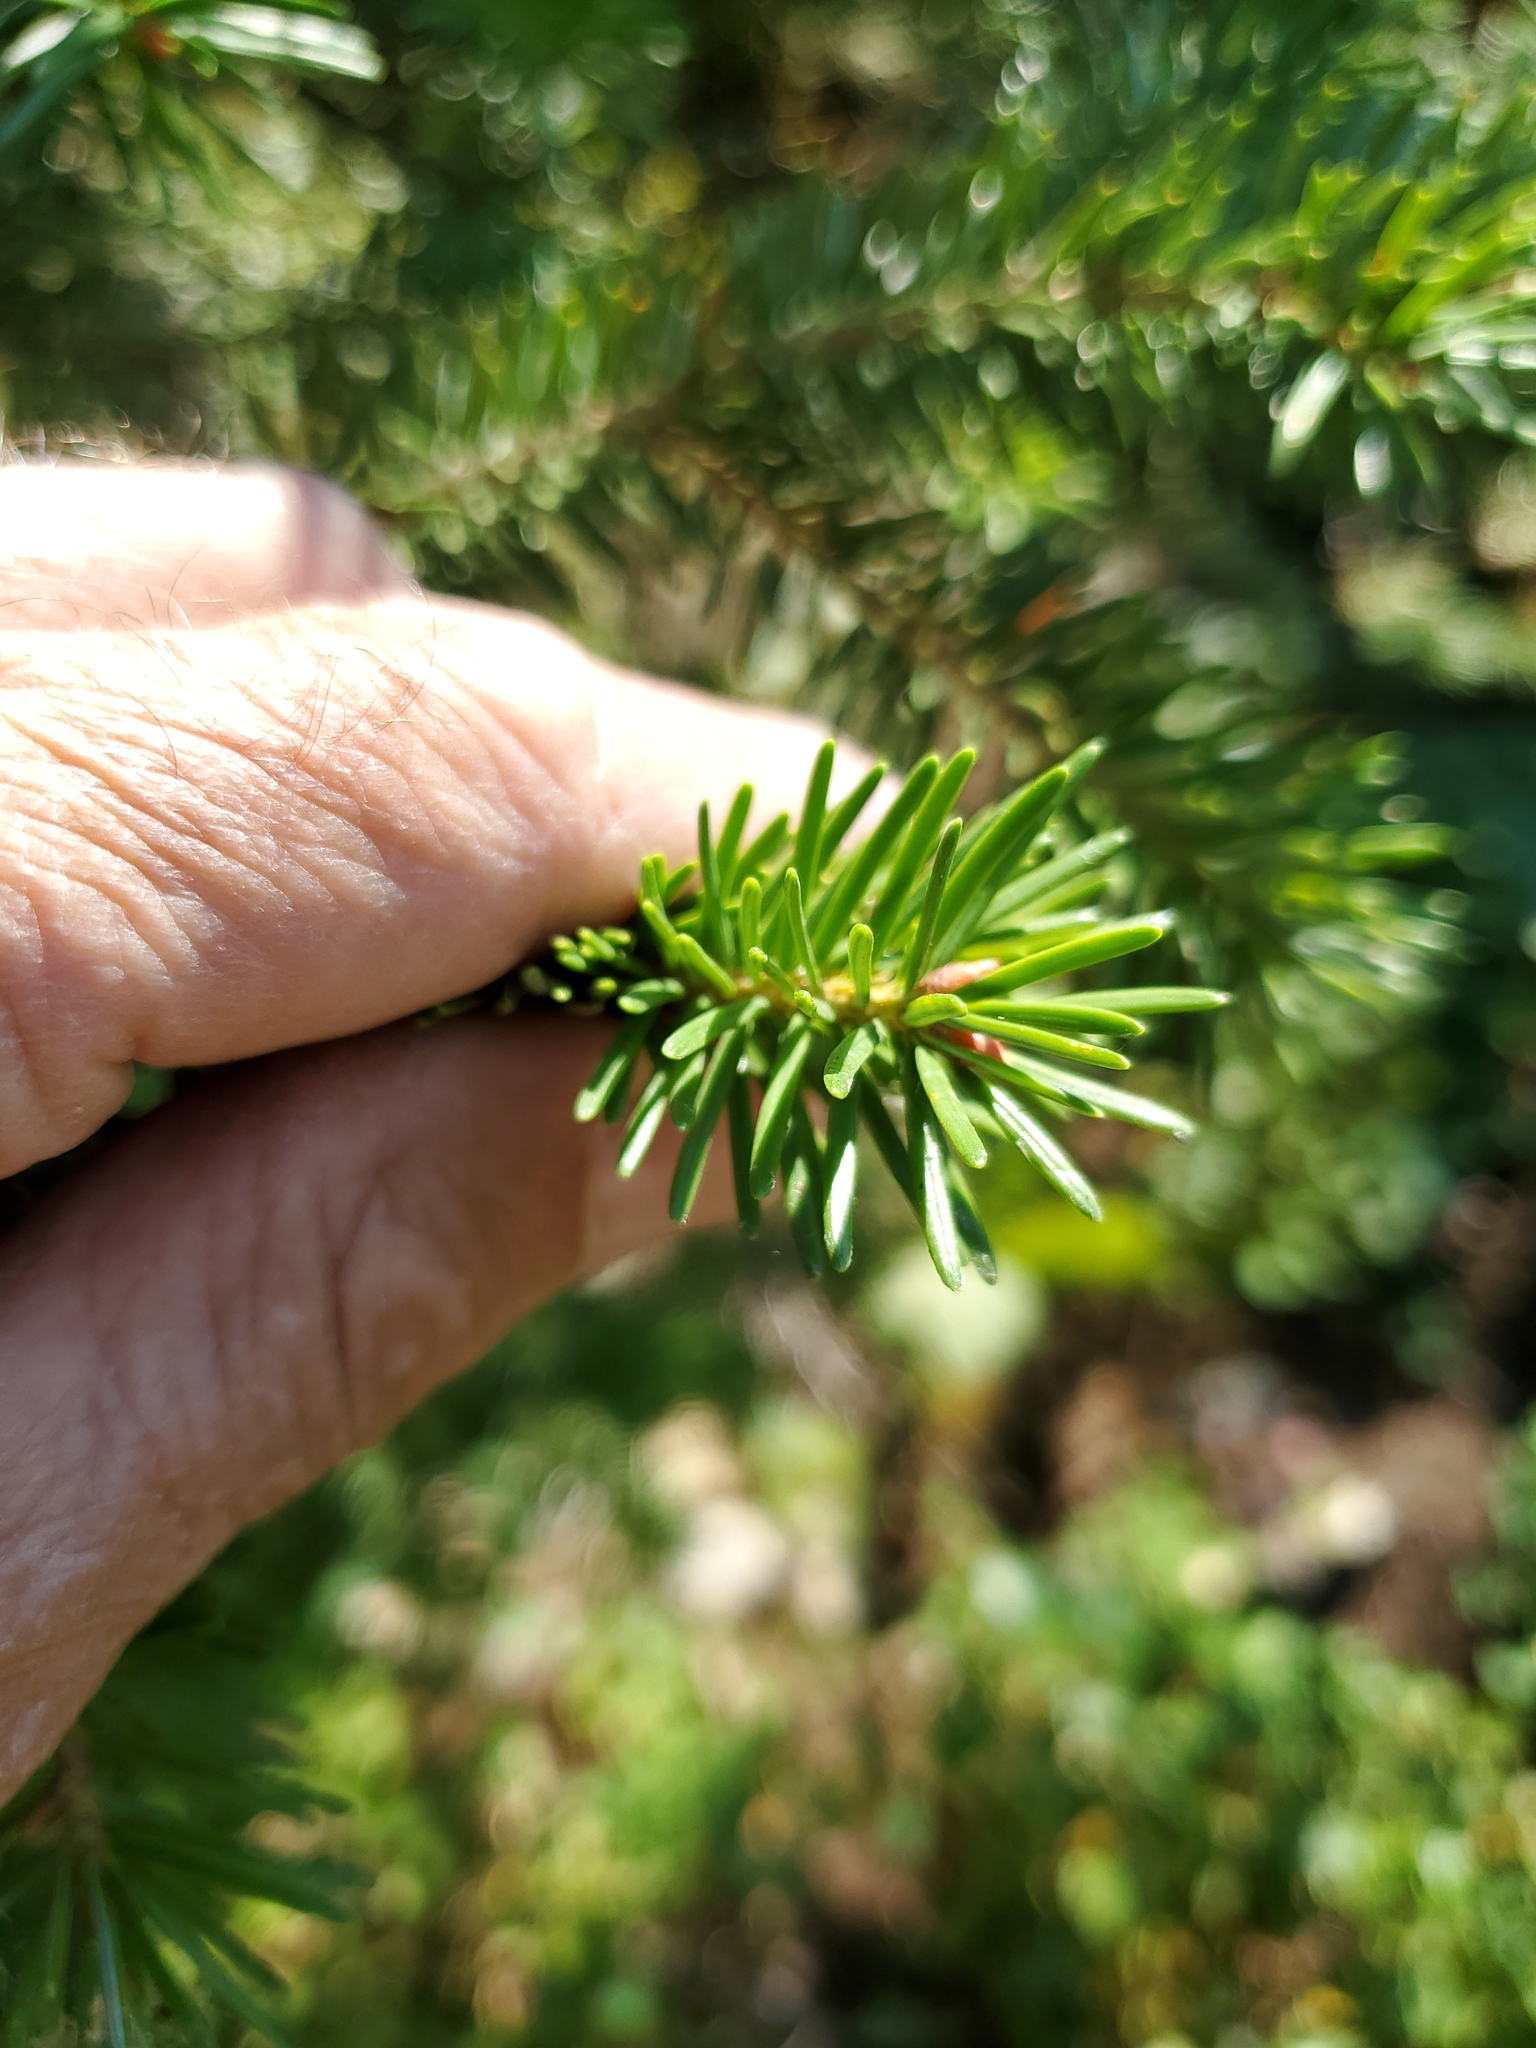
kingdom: Plantae
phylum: Tracheophyta
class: Pinopsida
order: Pinales
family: Pinaceae
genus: Pseudotsuga
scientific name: Pseudotsuga menziesii
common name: Douglas fir
